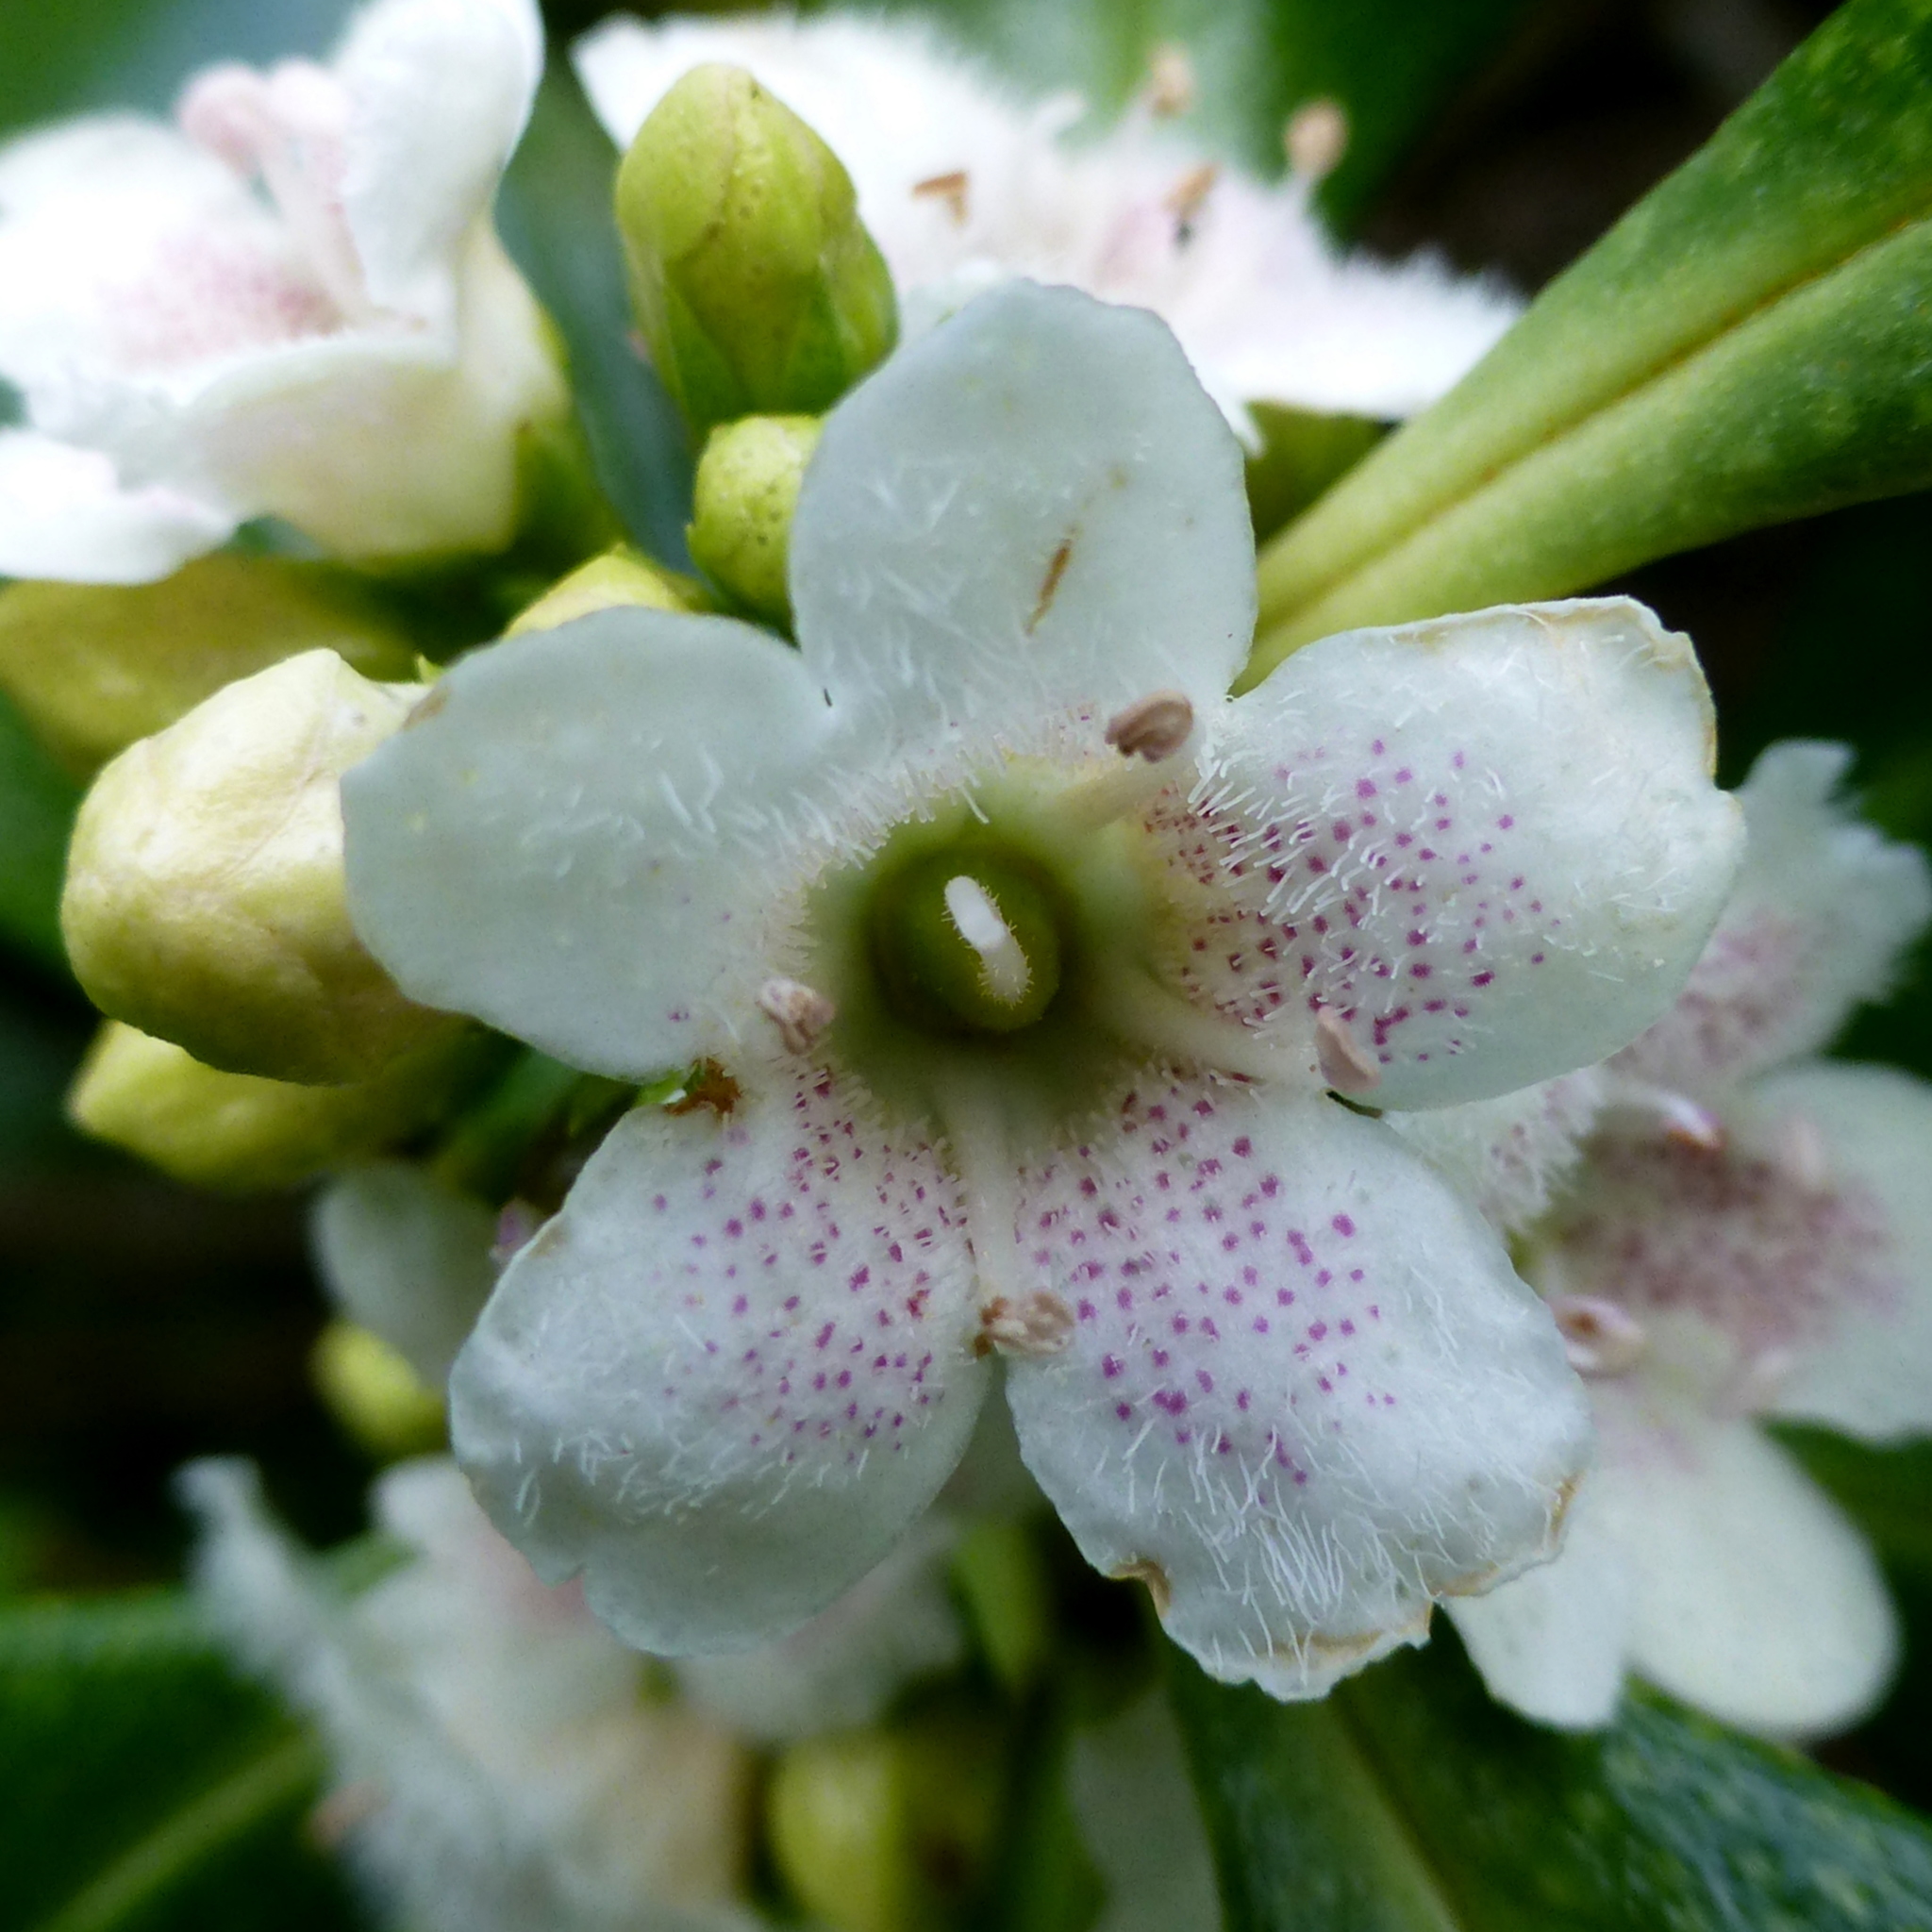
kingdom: Plantae
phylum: Tracheophyta
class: Magnoliopsida
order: Lamiales
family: Scrophulariaceae
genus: Myoporum
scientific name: Myoporum laetum
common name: Ngaio tree
